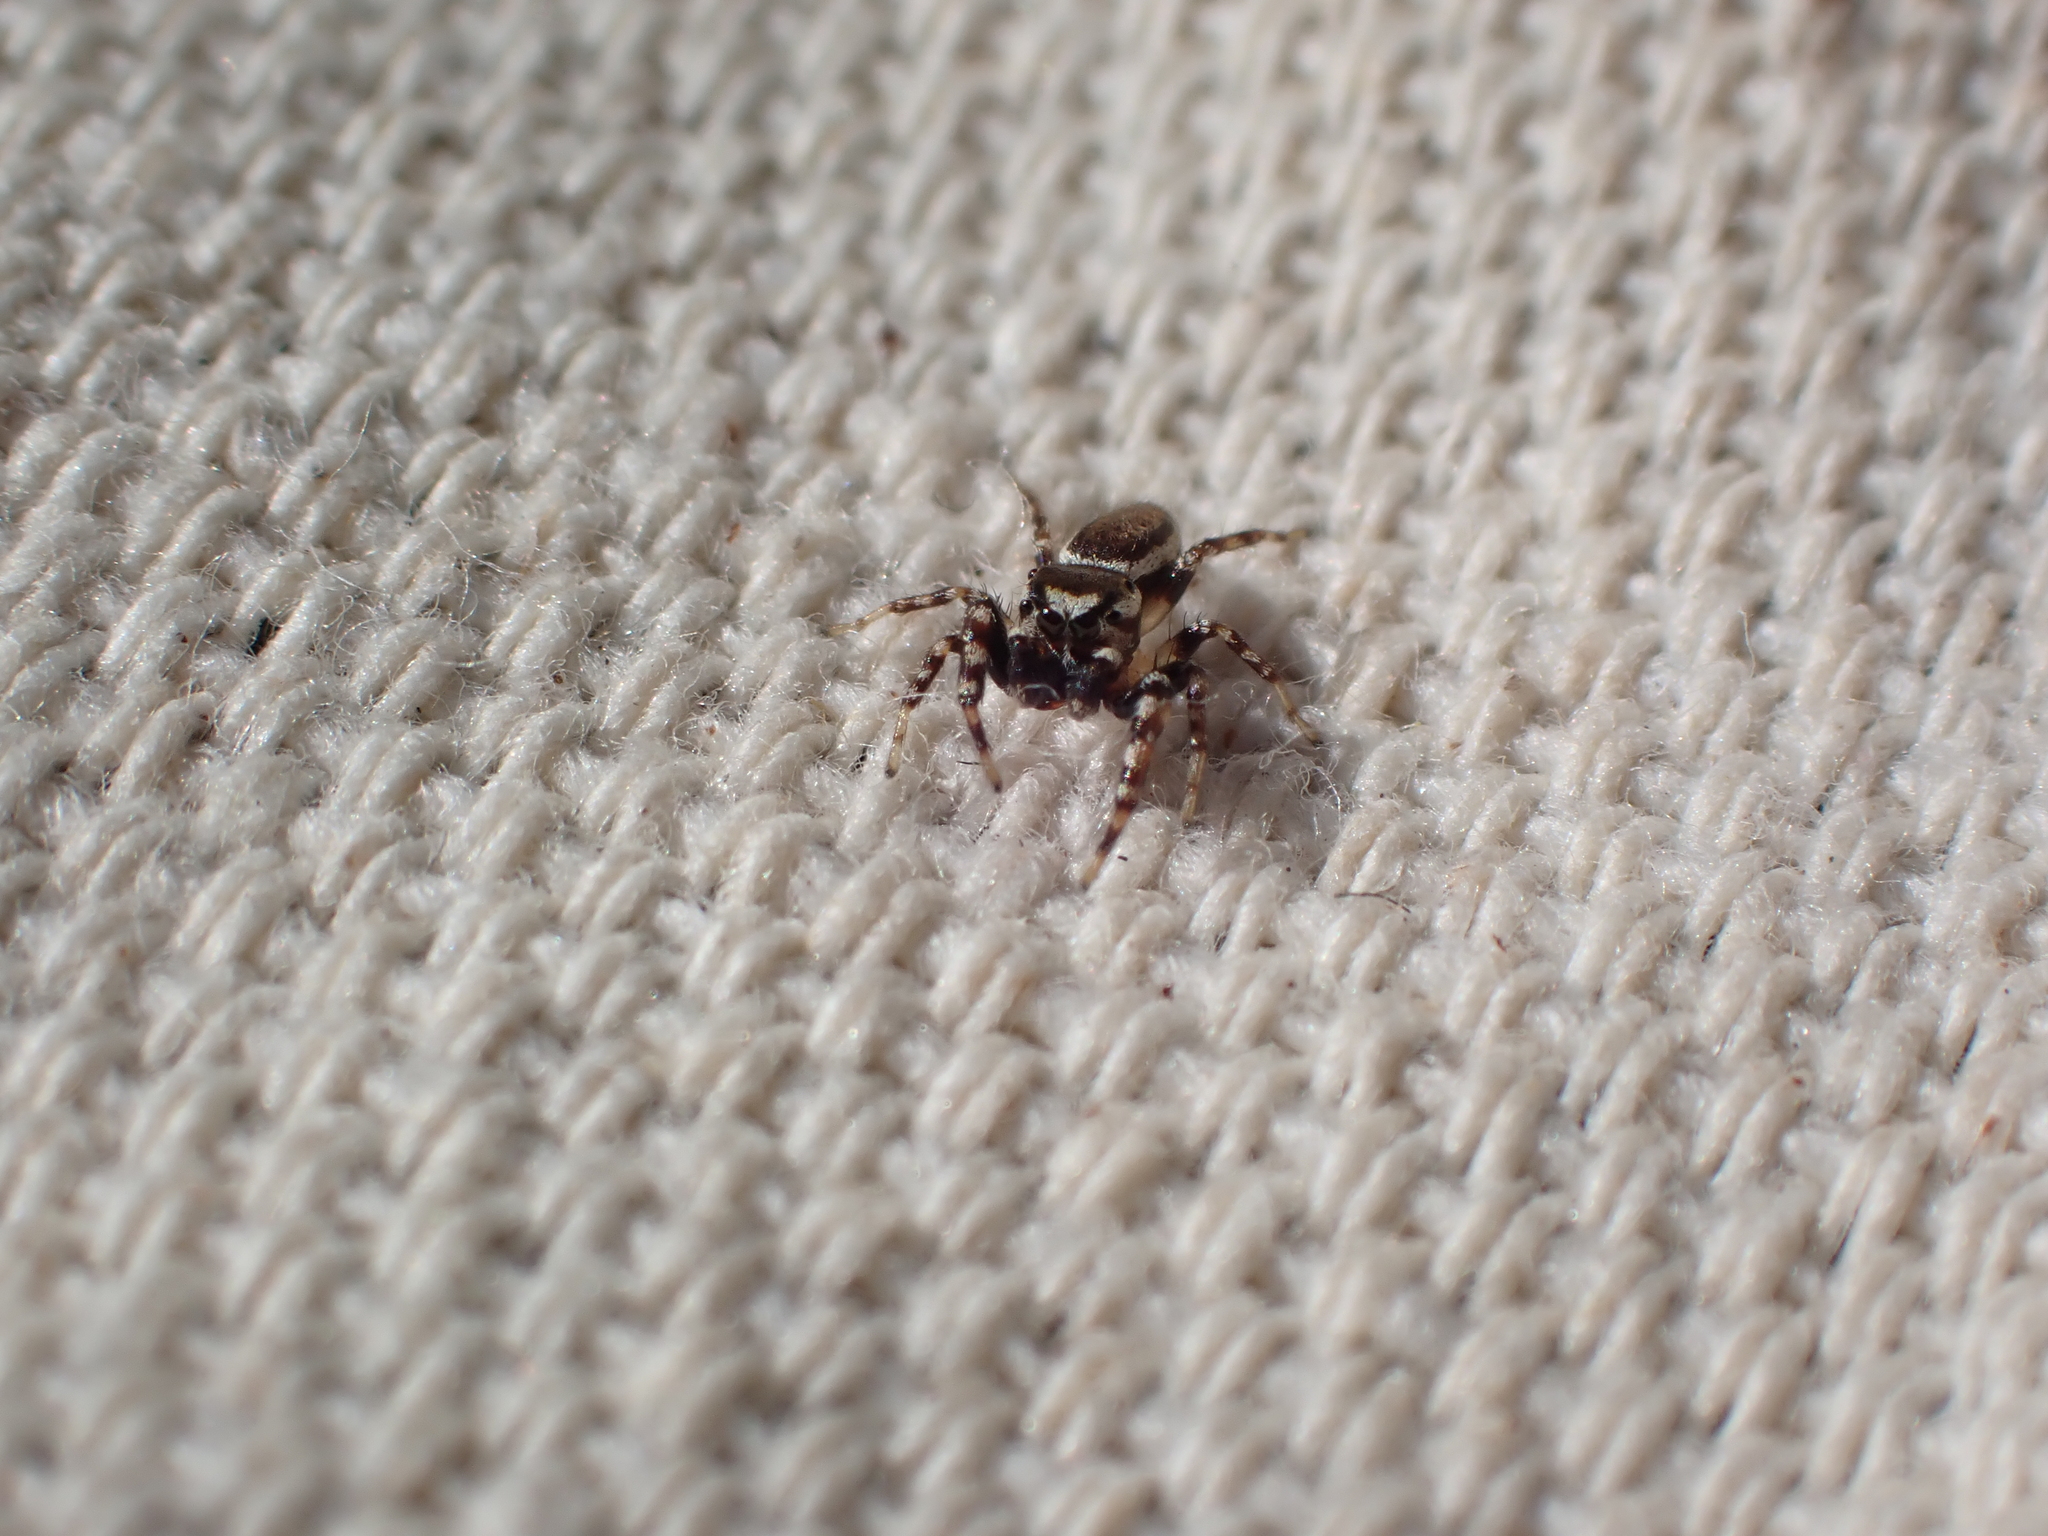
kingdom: Animalia
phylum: Arthropoda
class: Arachnida
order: Araneae
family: Salticidae
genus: Pelegrina
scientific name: Pelegrina proterva
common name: Common white-cheeked jumping spider
